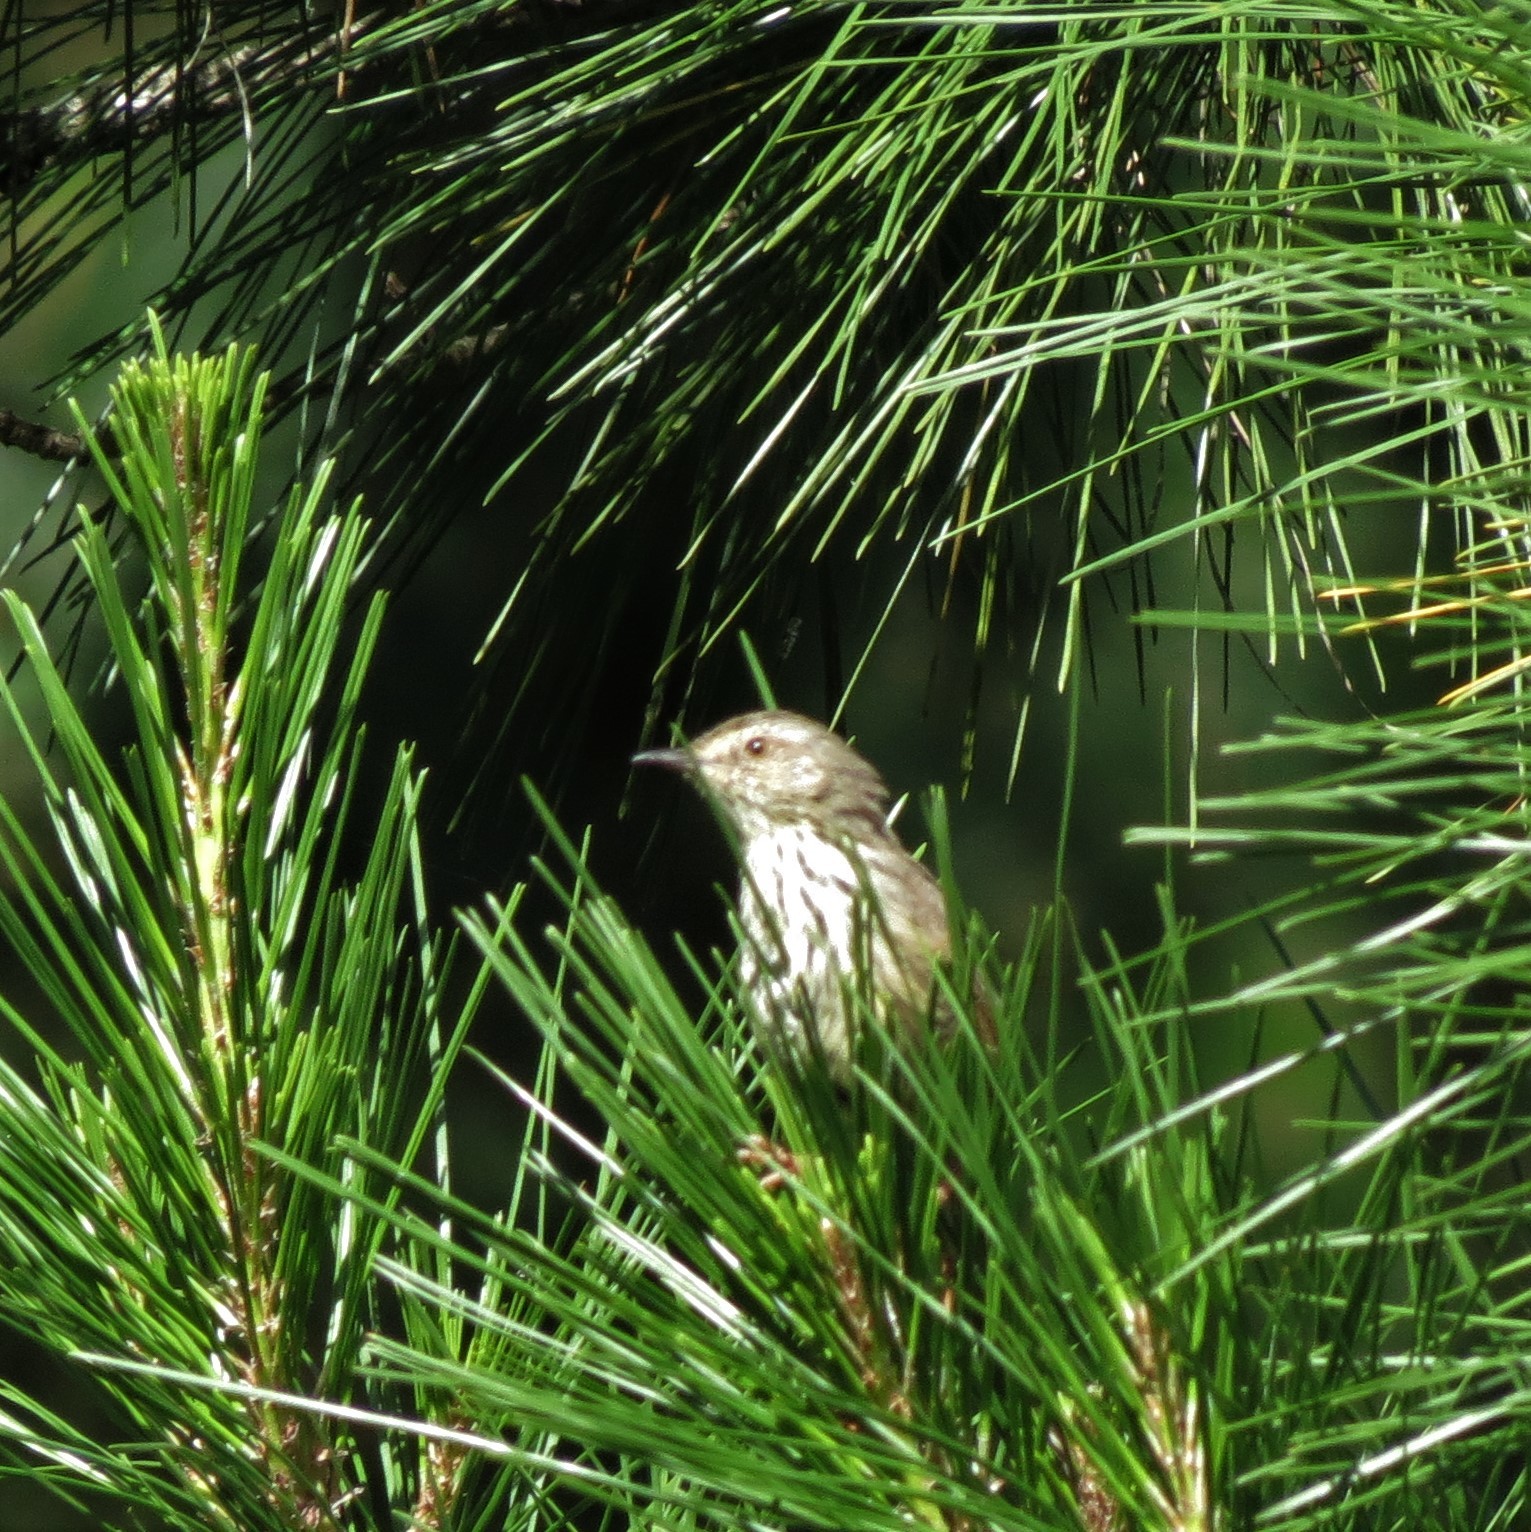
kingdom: Animalia
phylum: Chordata
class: Aves
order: Passeriformes
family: Cisticolidae
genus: Prinia
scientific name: Prinia maculosa
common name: Karoo prinia
